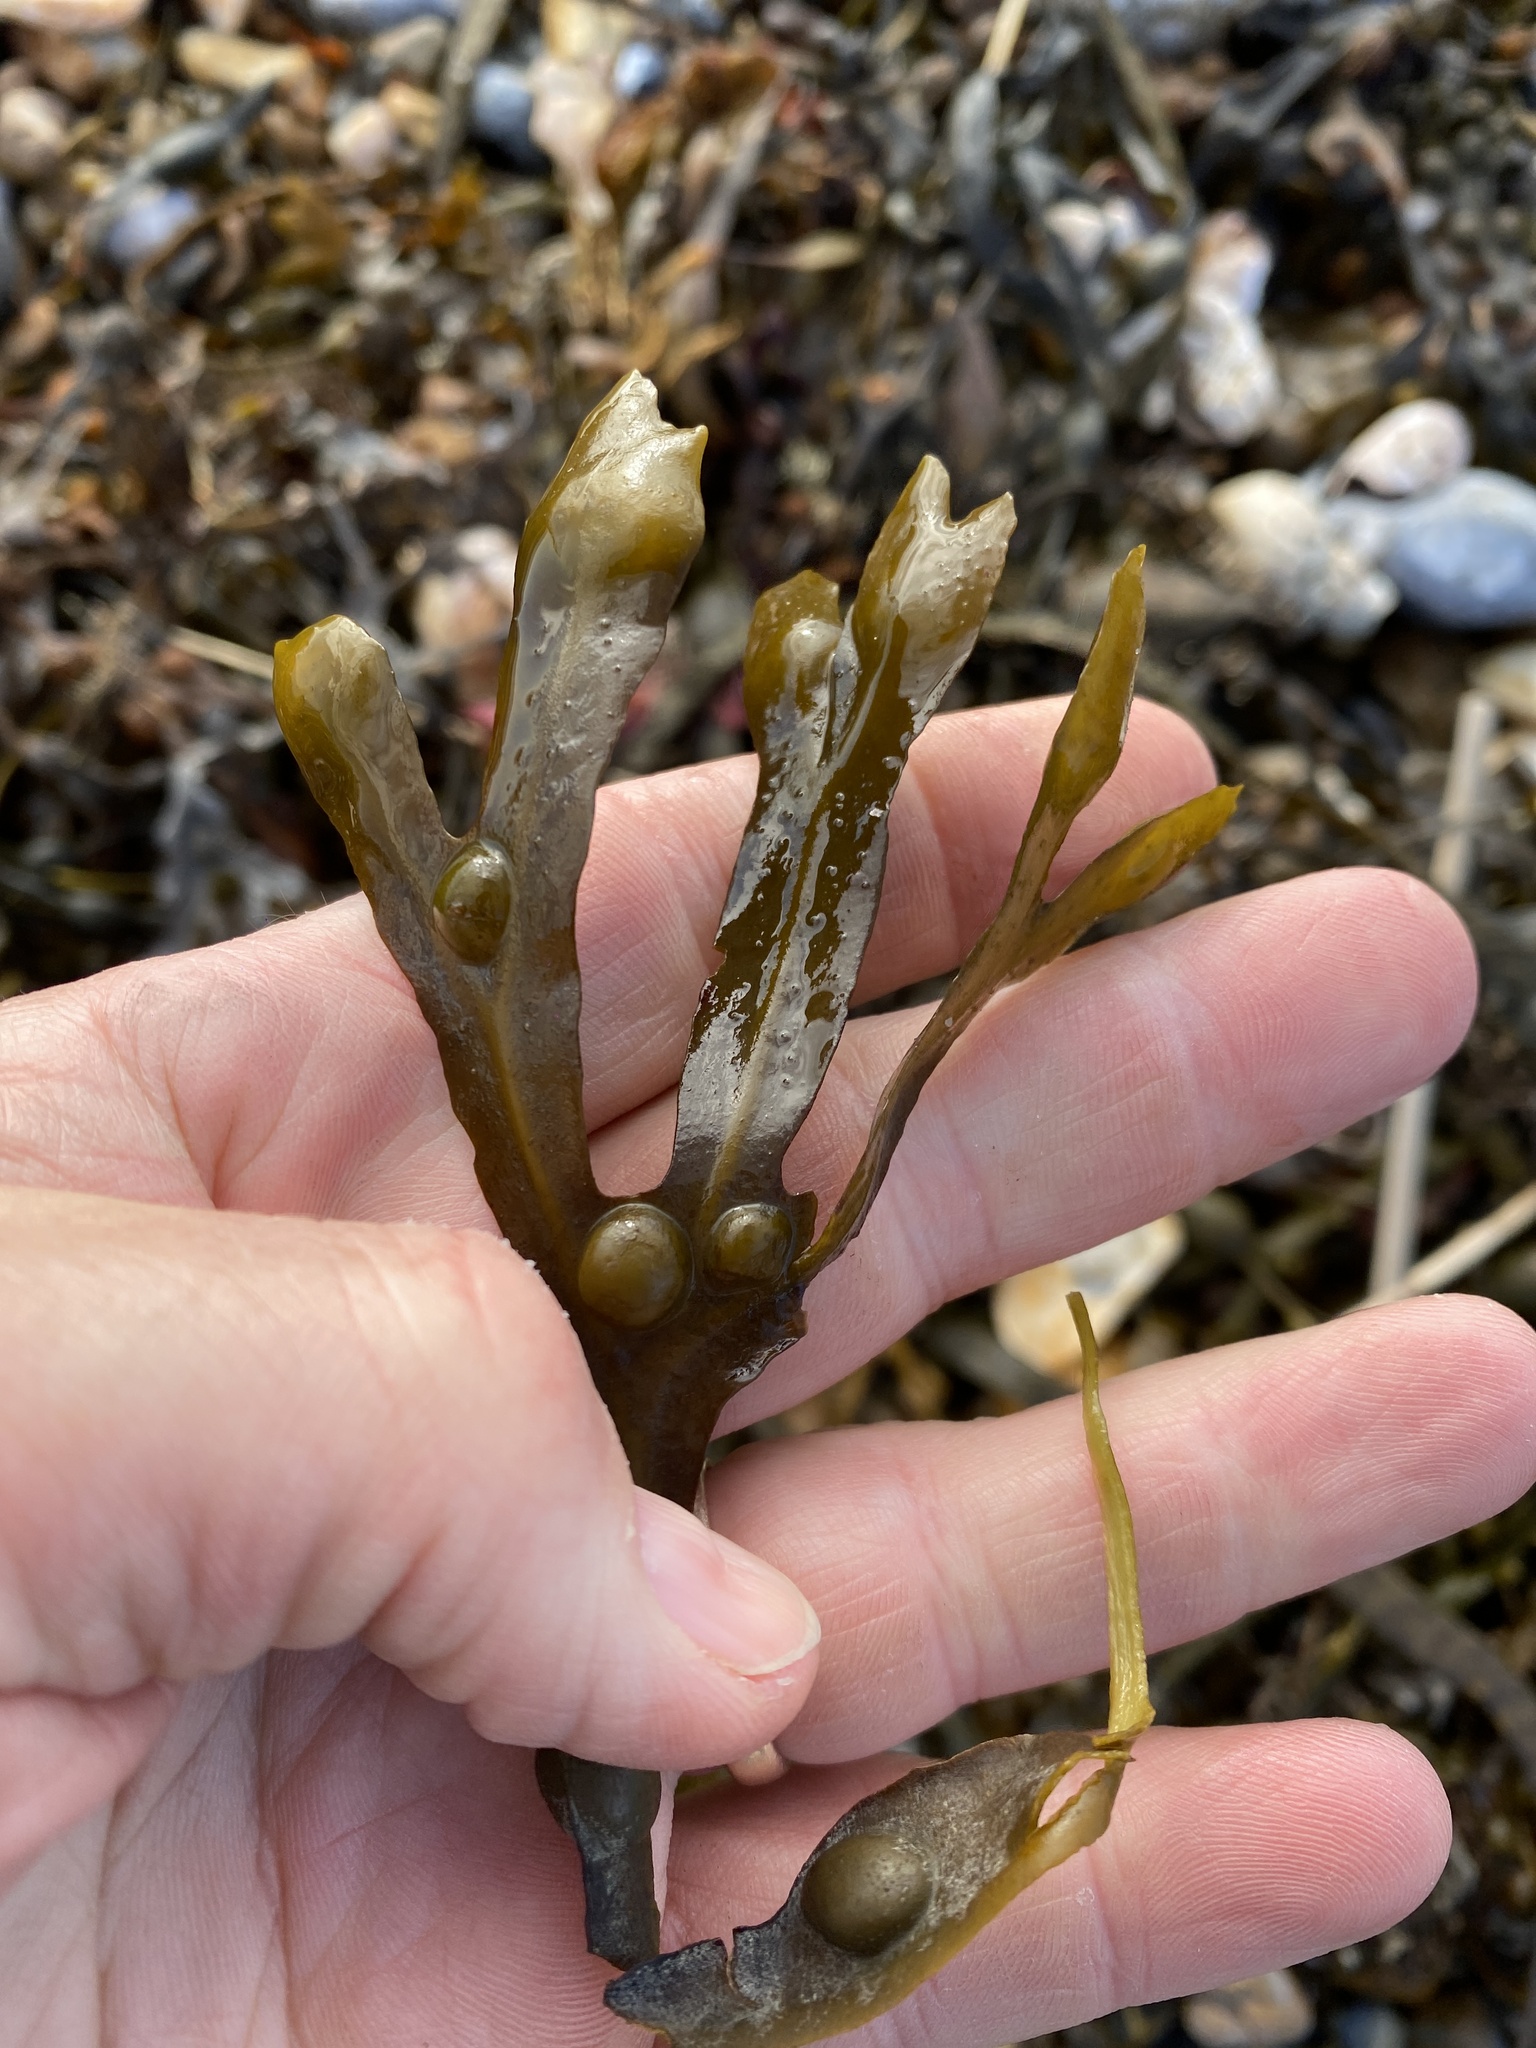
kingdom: Chromista
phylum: Ochrophyta
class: Phaeophyceae
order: Fucales
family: Fucaceae
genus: Fucus
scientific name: Fucus vesiculosus
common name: Bladder wrack
